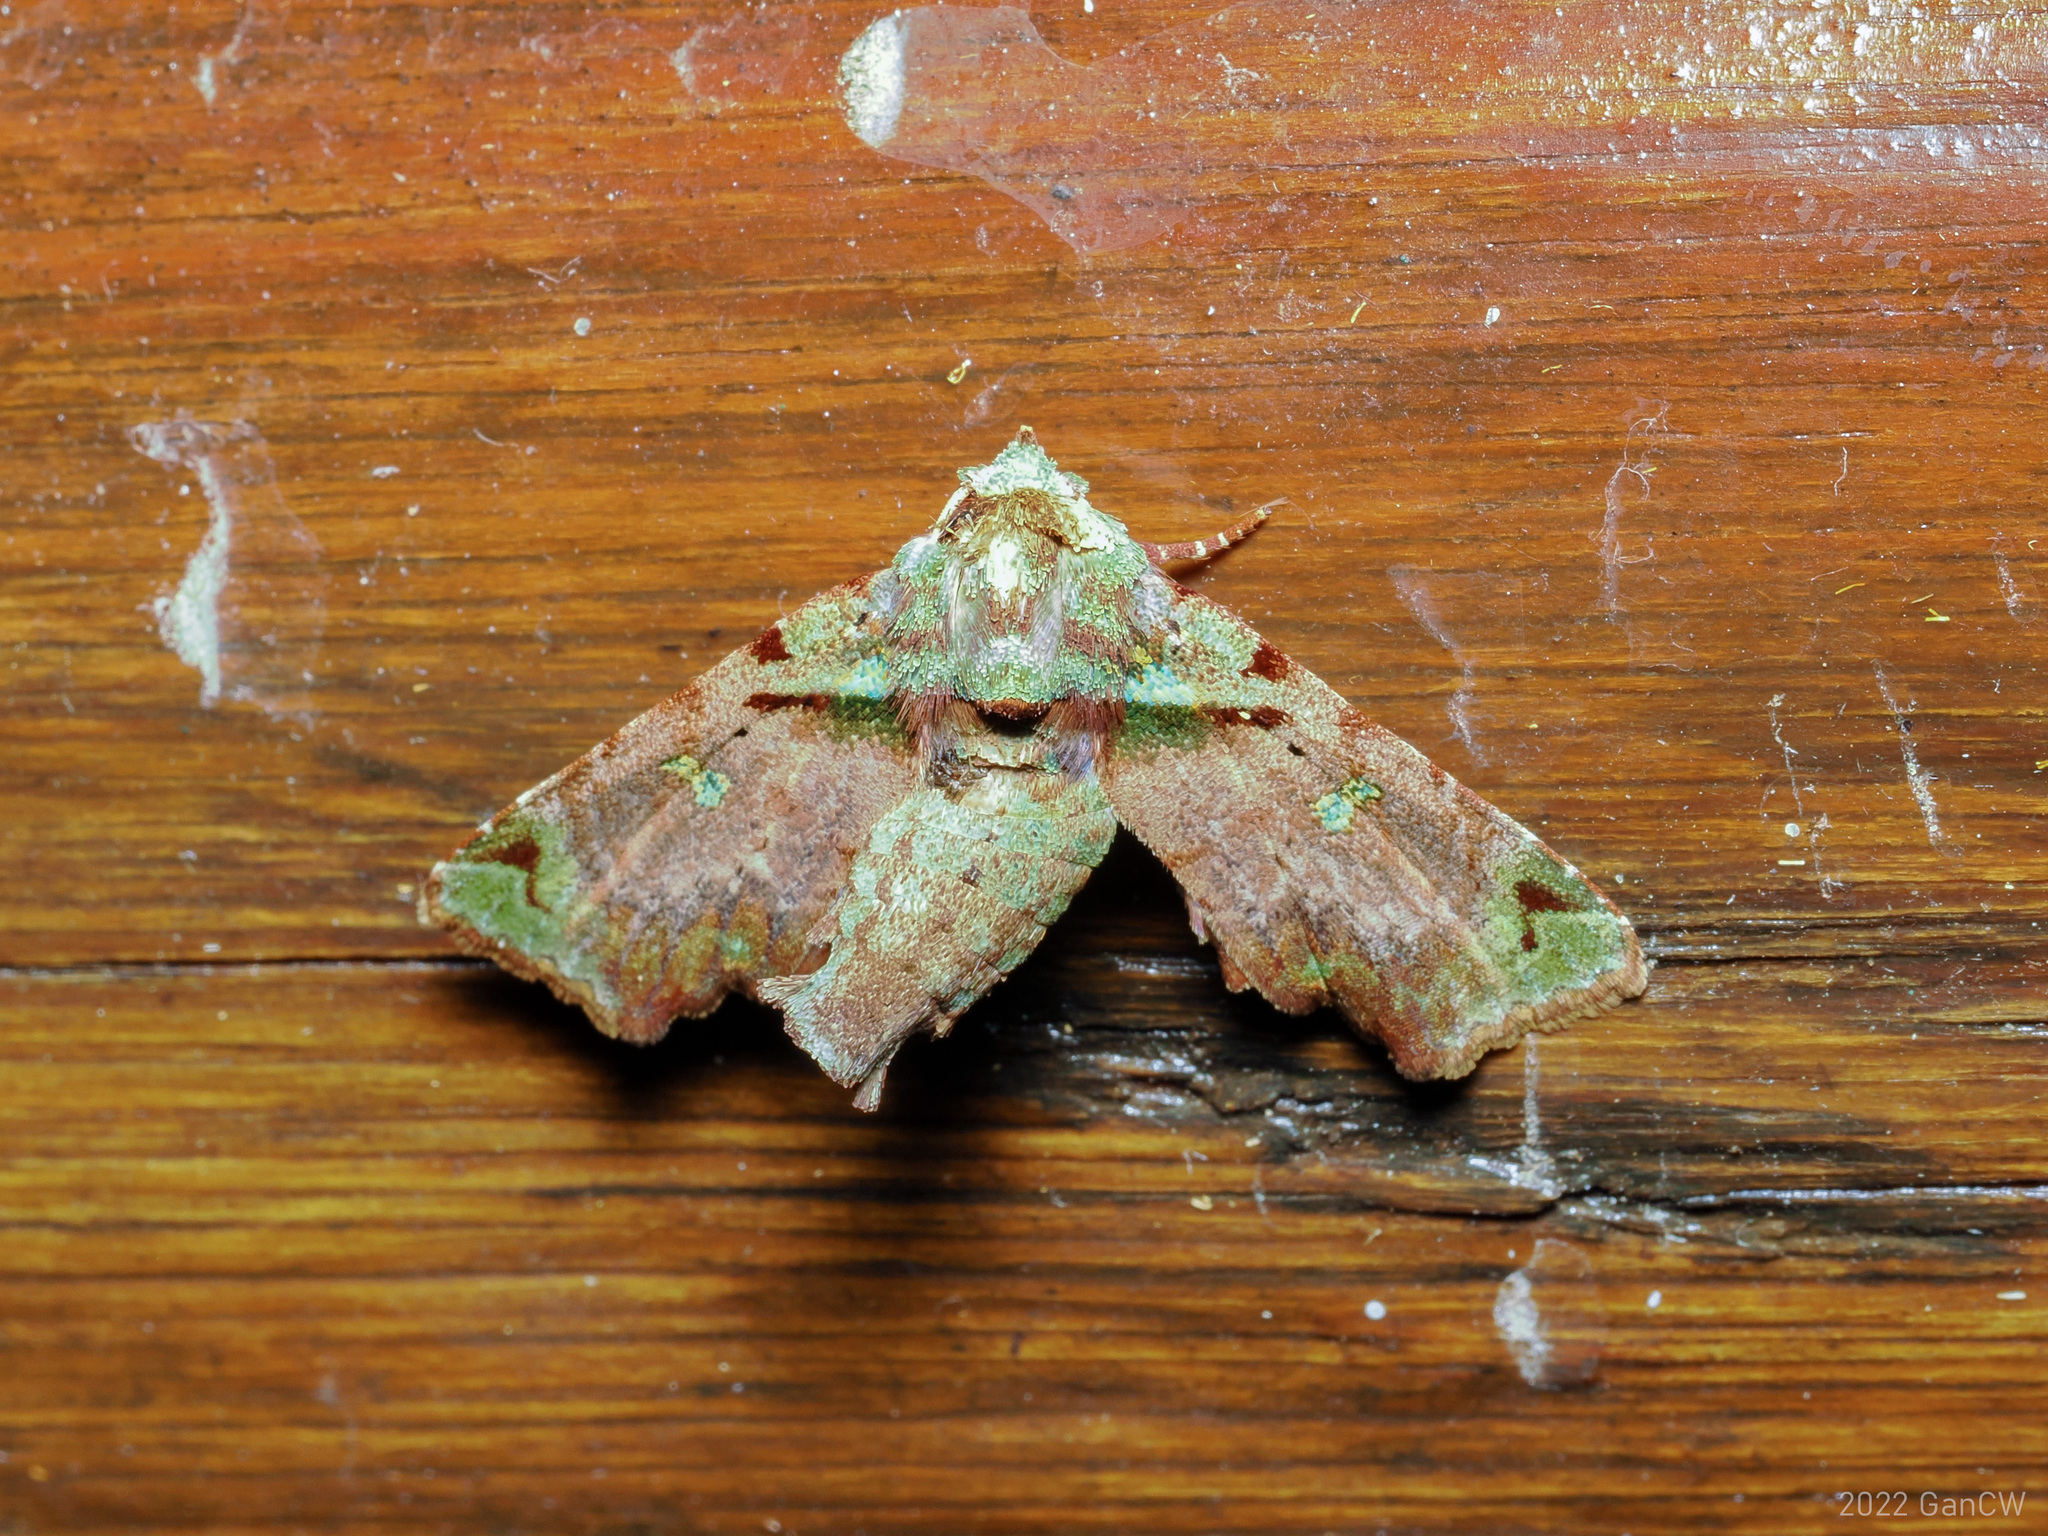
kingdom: Animalia
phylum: Arthropoda
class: Insecta
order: Lepidoptera
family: Euteliidae
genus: Kobestelia
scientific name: Kobestelia rosea
